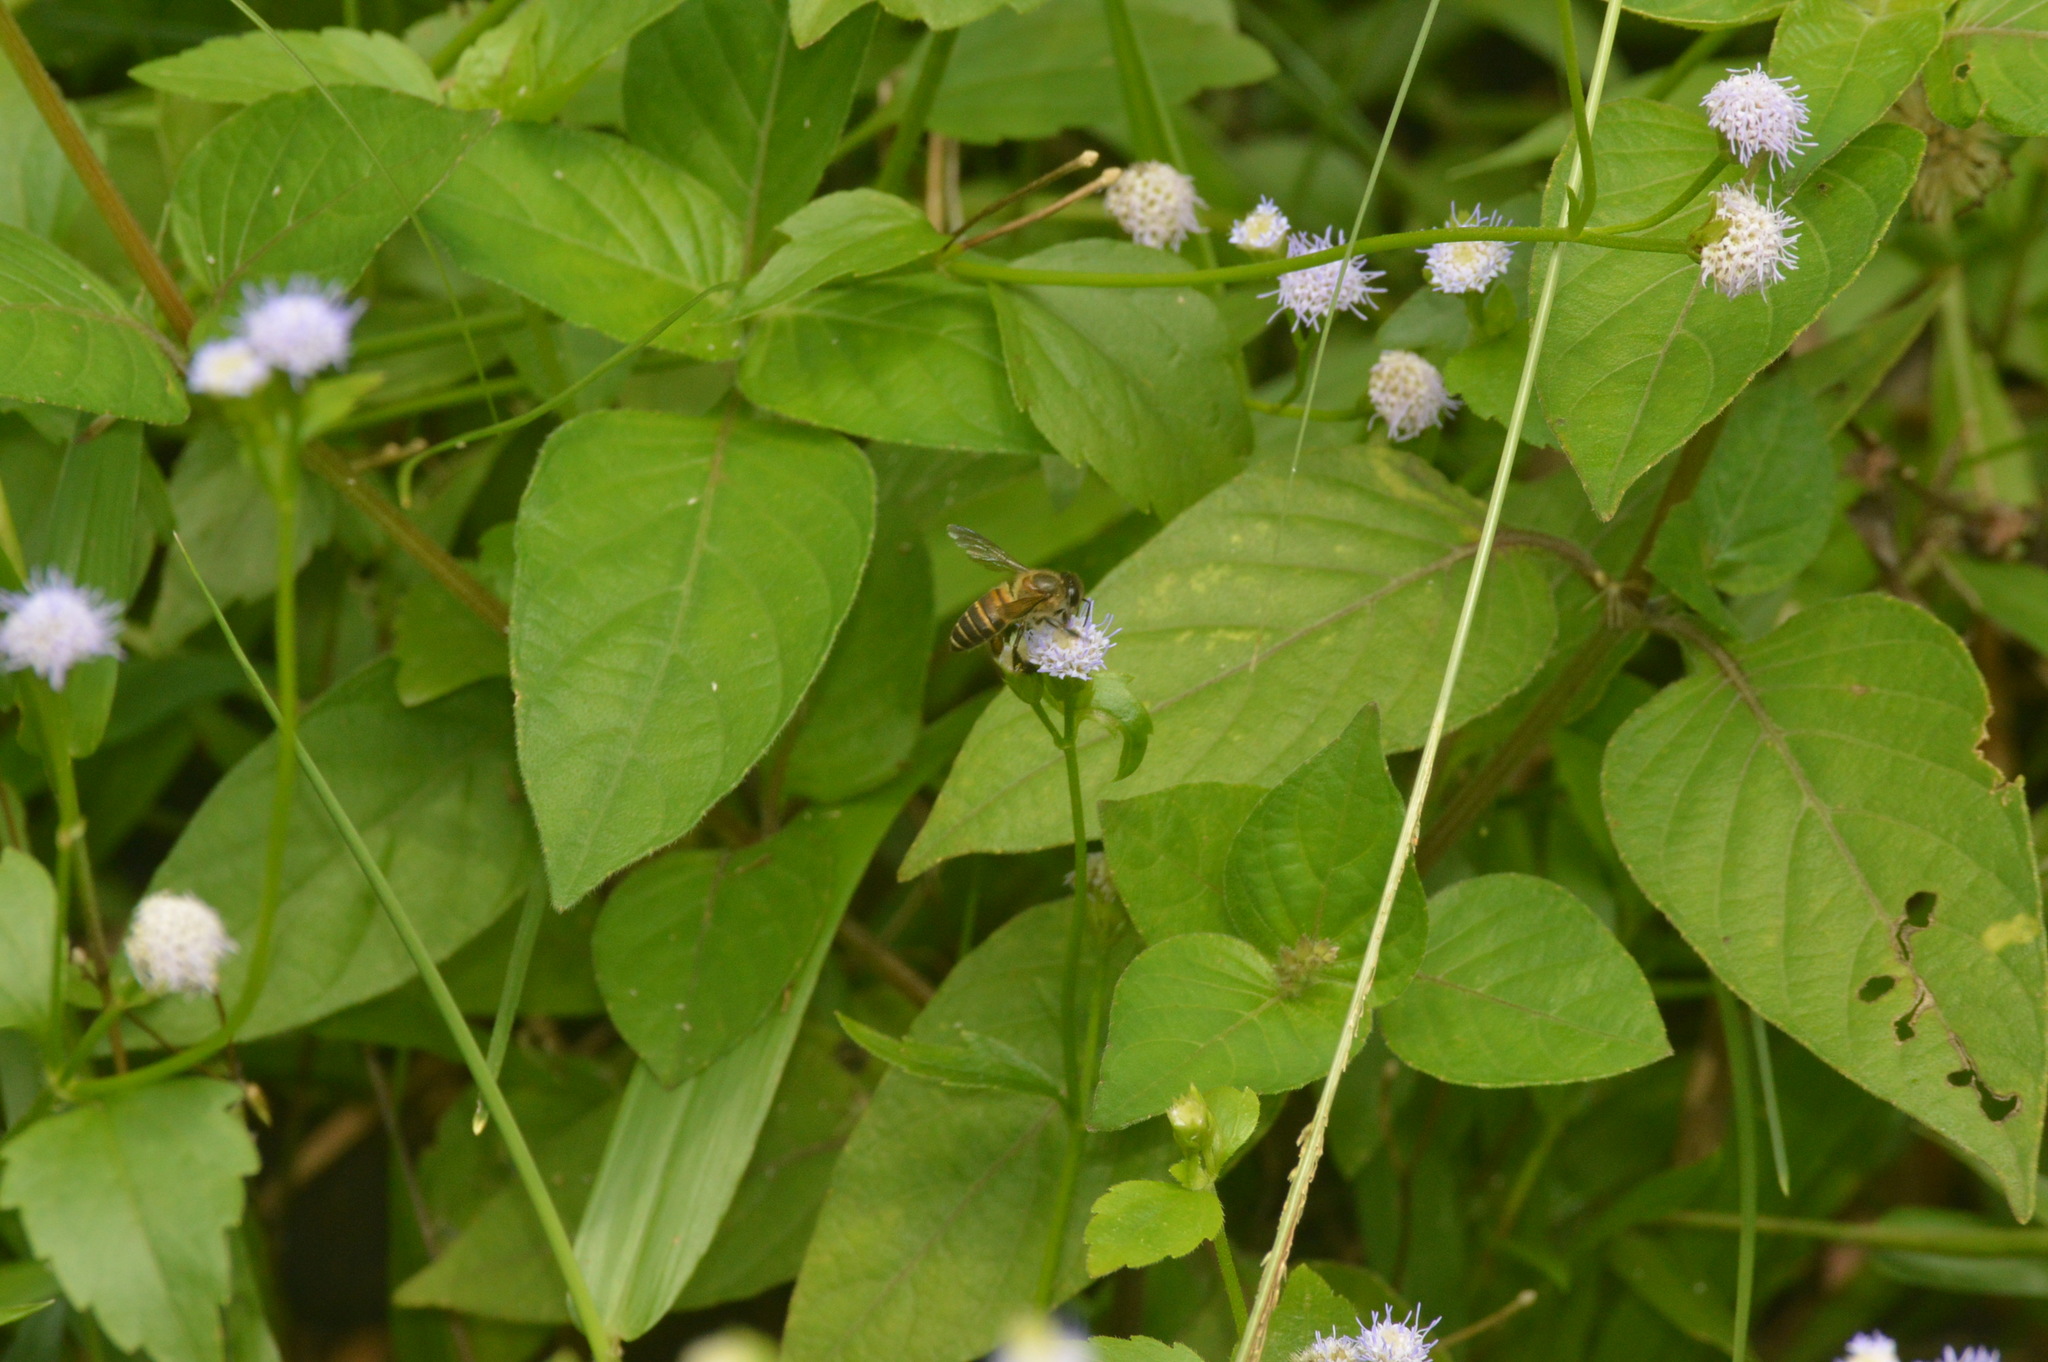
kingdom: Animalia
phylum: Arthropoda
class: Insecta
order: Hymenoptera
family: Apidae
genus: Apis
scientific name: Apis cerana
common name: Honey bee
